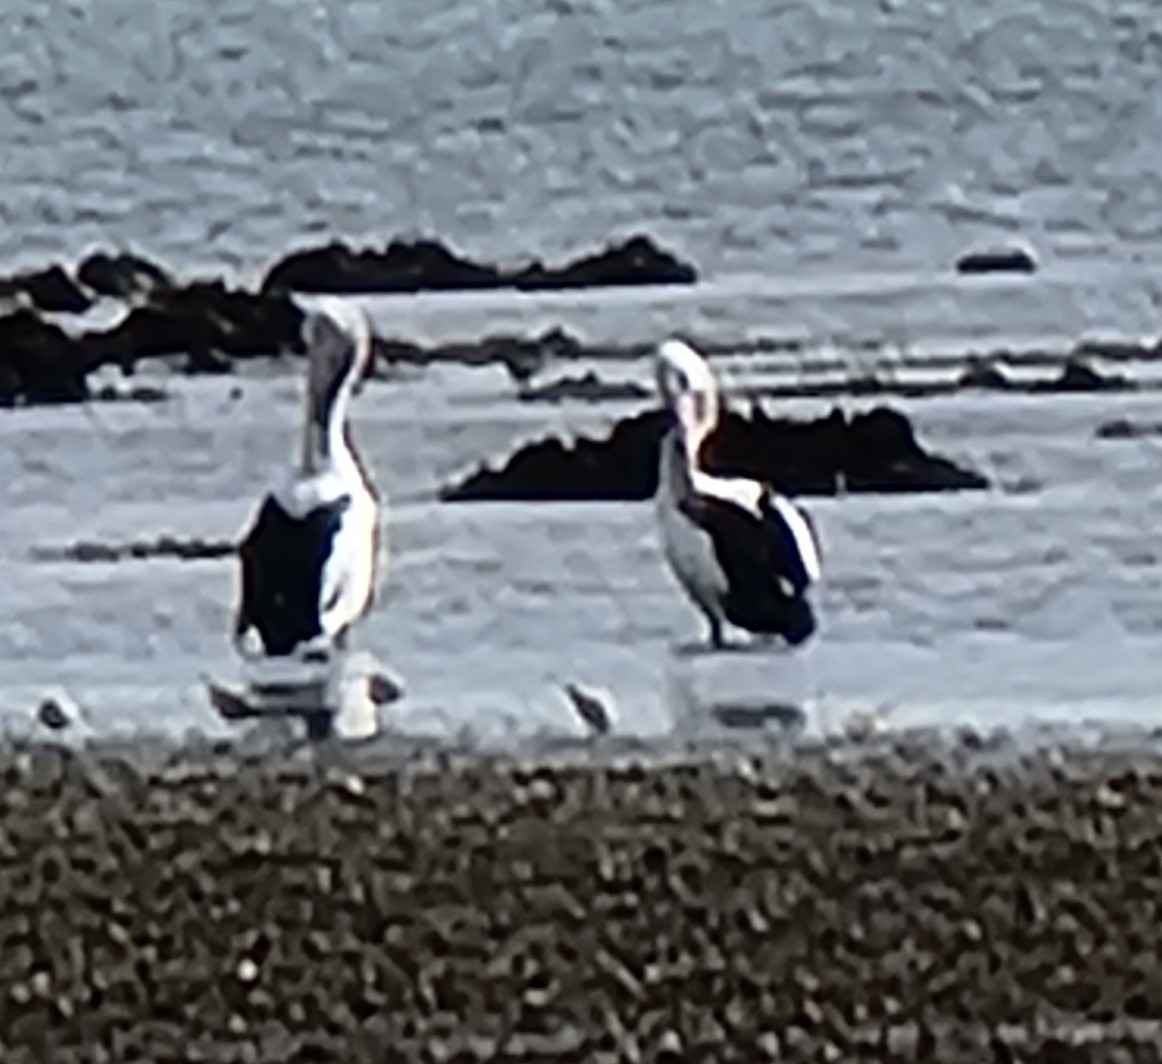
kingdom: Animalia
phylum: Chordata
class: Aves
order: Pelecaniformes
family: Pelecanidae
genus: Pelecanus
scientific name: Pelecanus conspicillatus
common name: Australian pelican
